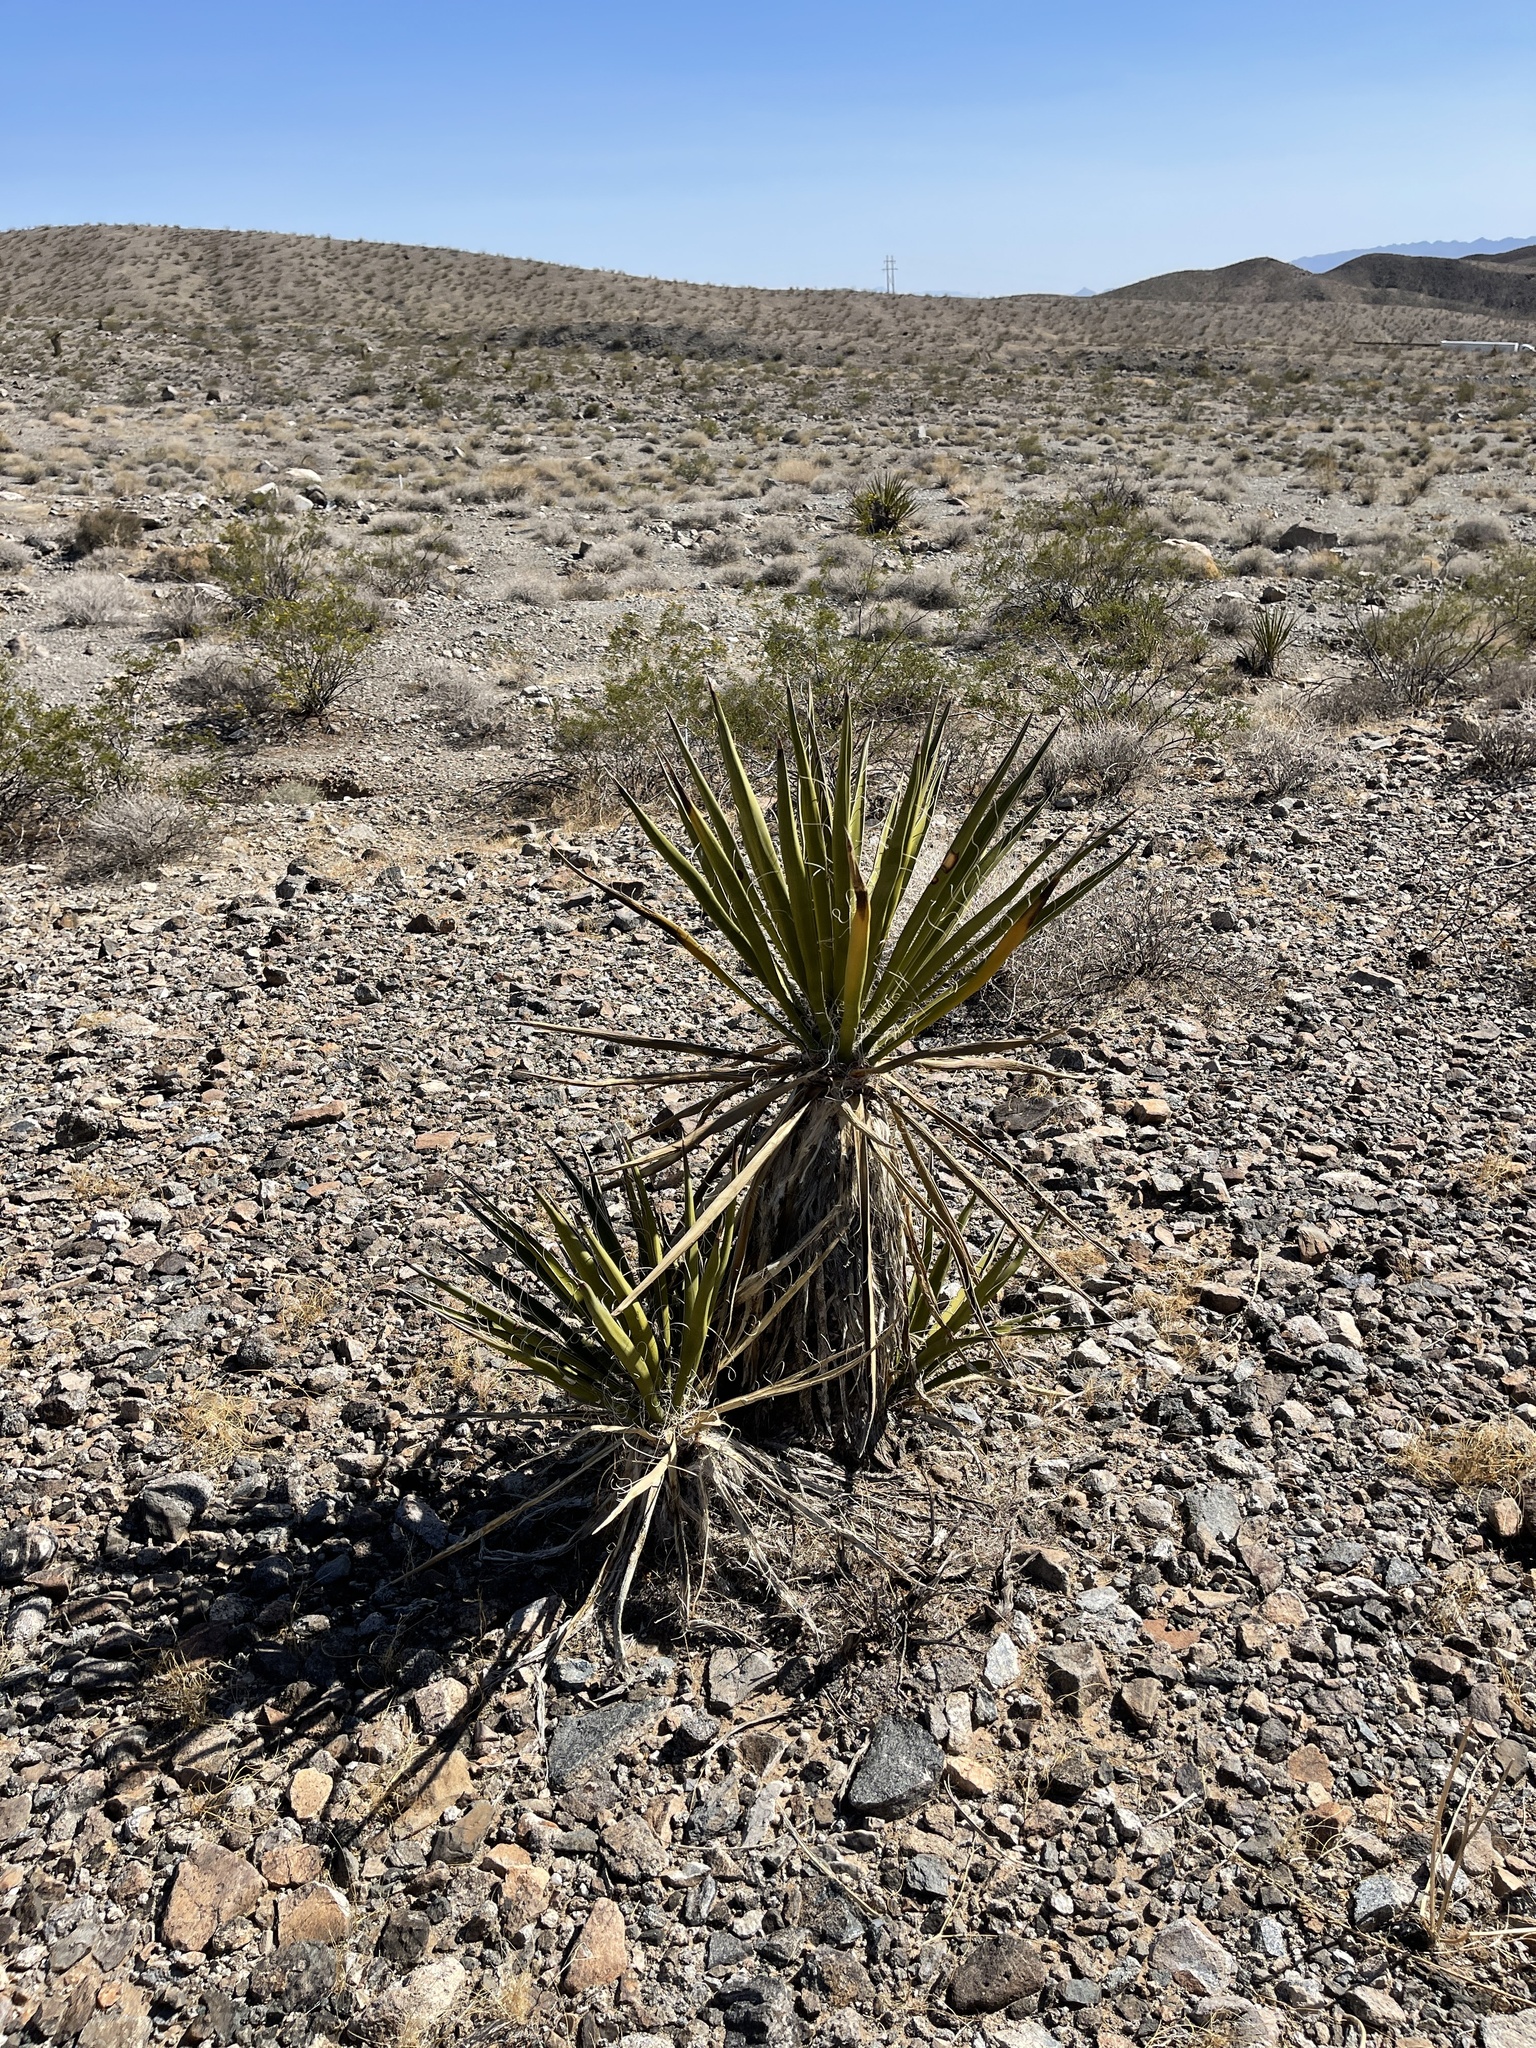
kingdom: Plantae
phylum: Tracheophyta
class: Liliopsida
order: Asparagales
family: Asparagaceae
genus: Yucca
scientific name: Yucca schidigera
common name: Mojave yucca
